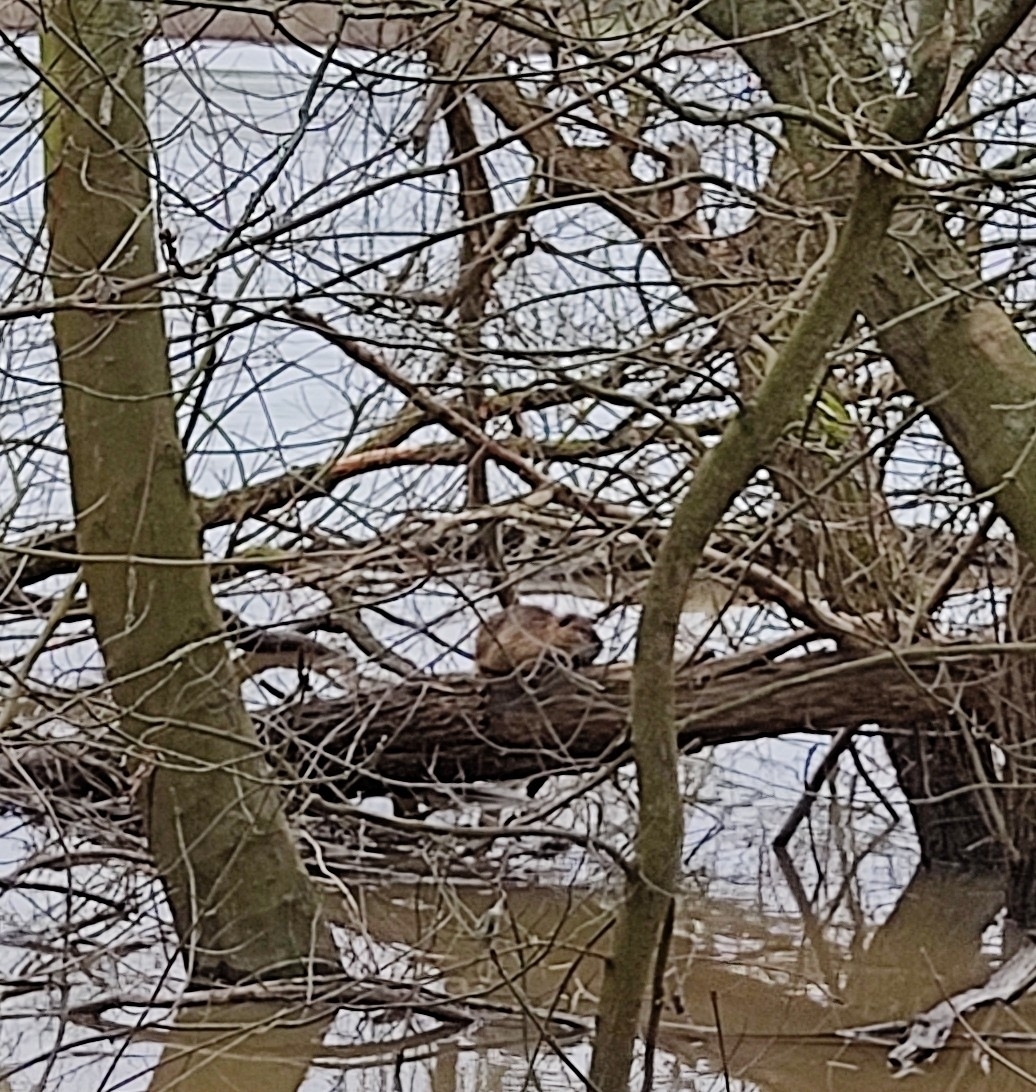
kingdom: Animalia
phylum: Chordata
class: Mammalia
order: Rodentia
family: Myocastoridae
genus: Myocastor
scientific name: Myocastor coypus
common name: Coypu
